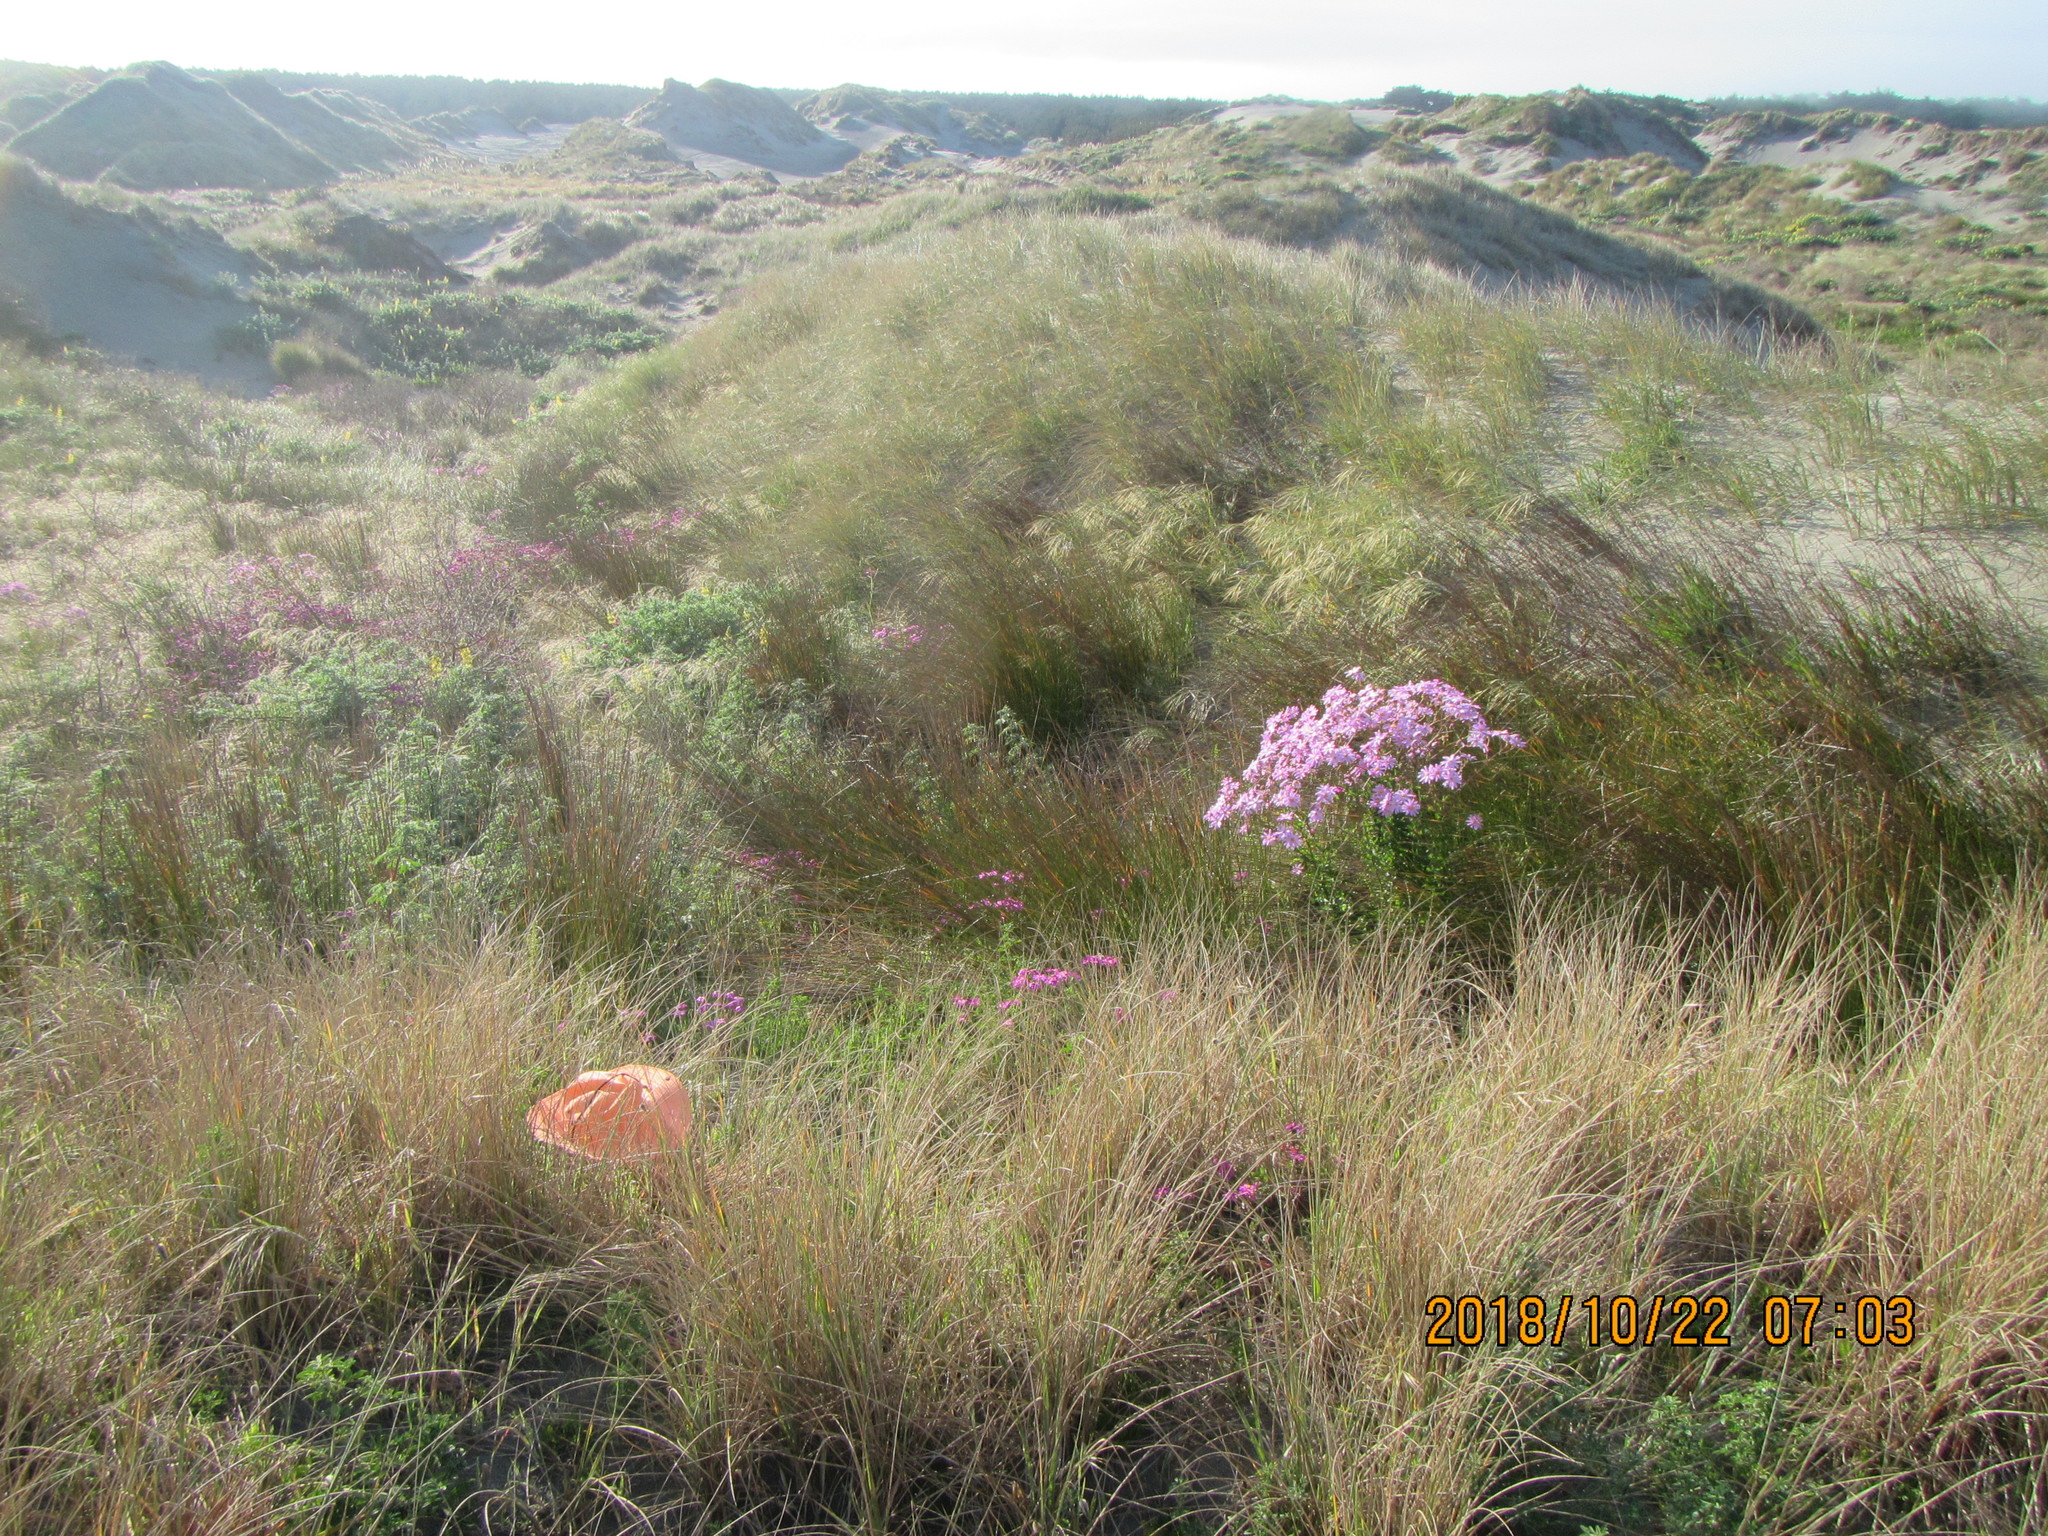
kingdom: Plantae
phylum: Tracheophyta
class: Liliopsida
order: Poales
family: Poaceae
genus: Lachnagrostis
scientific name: Lachnagrostis billardierei
